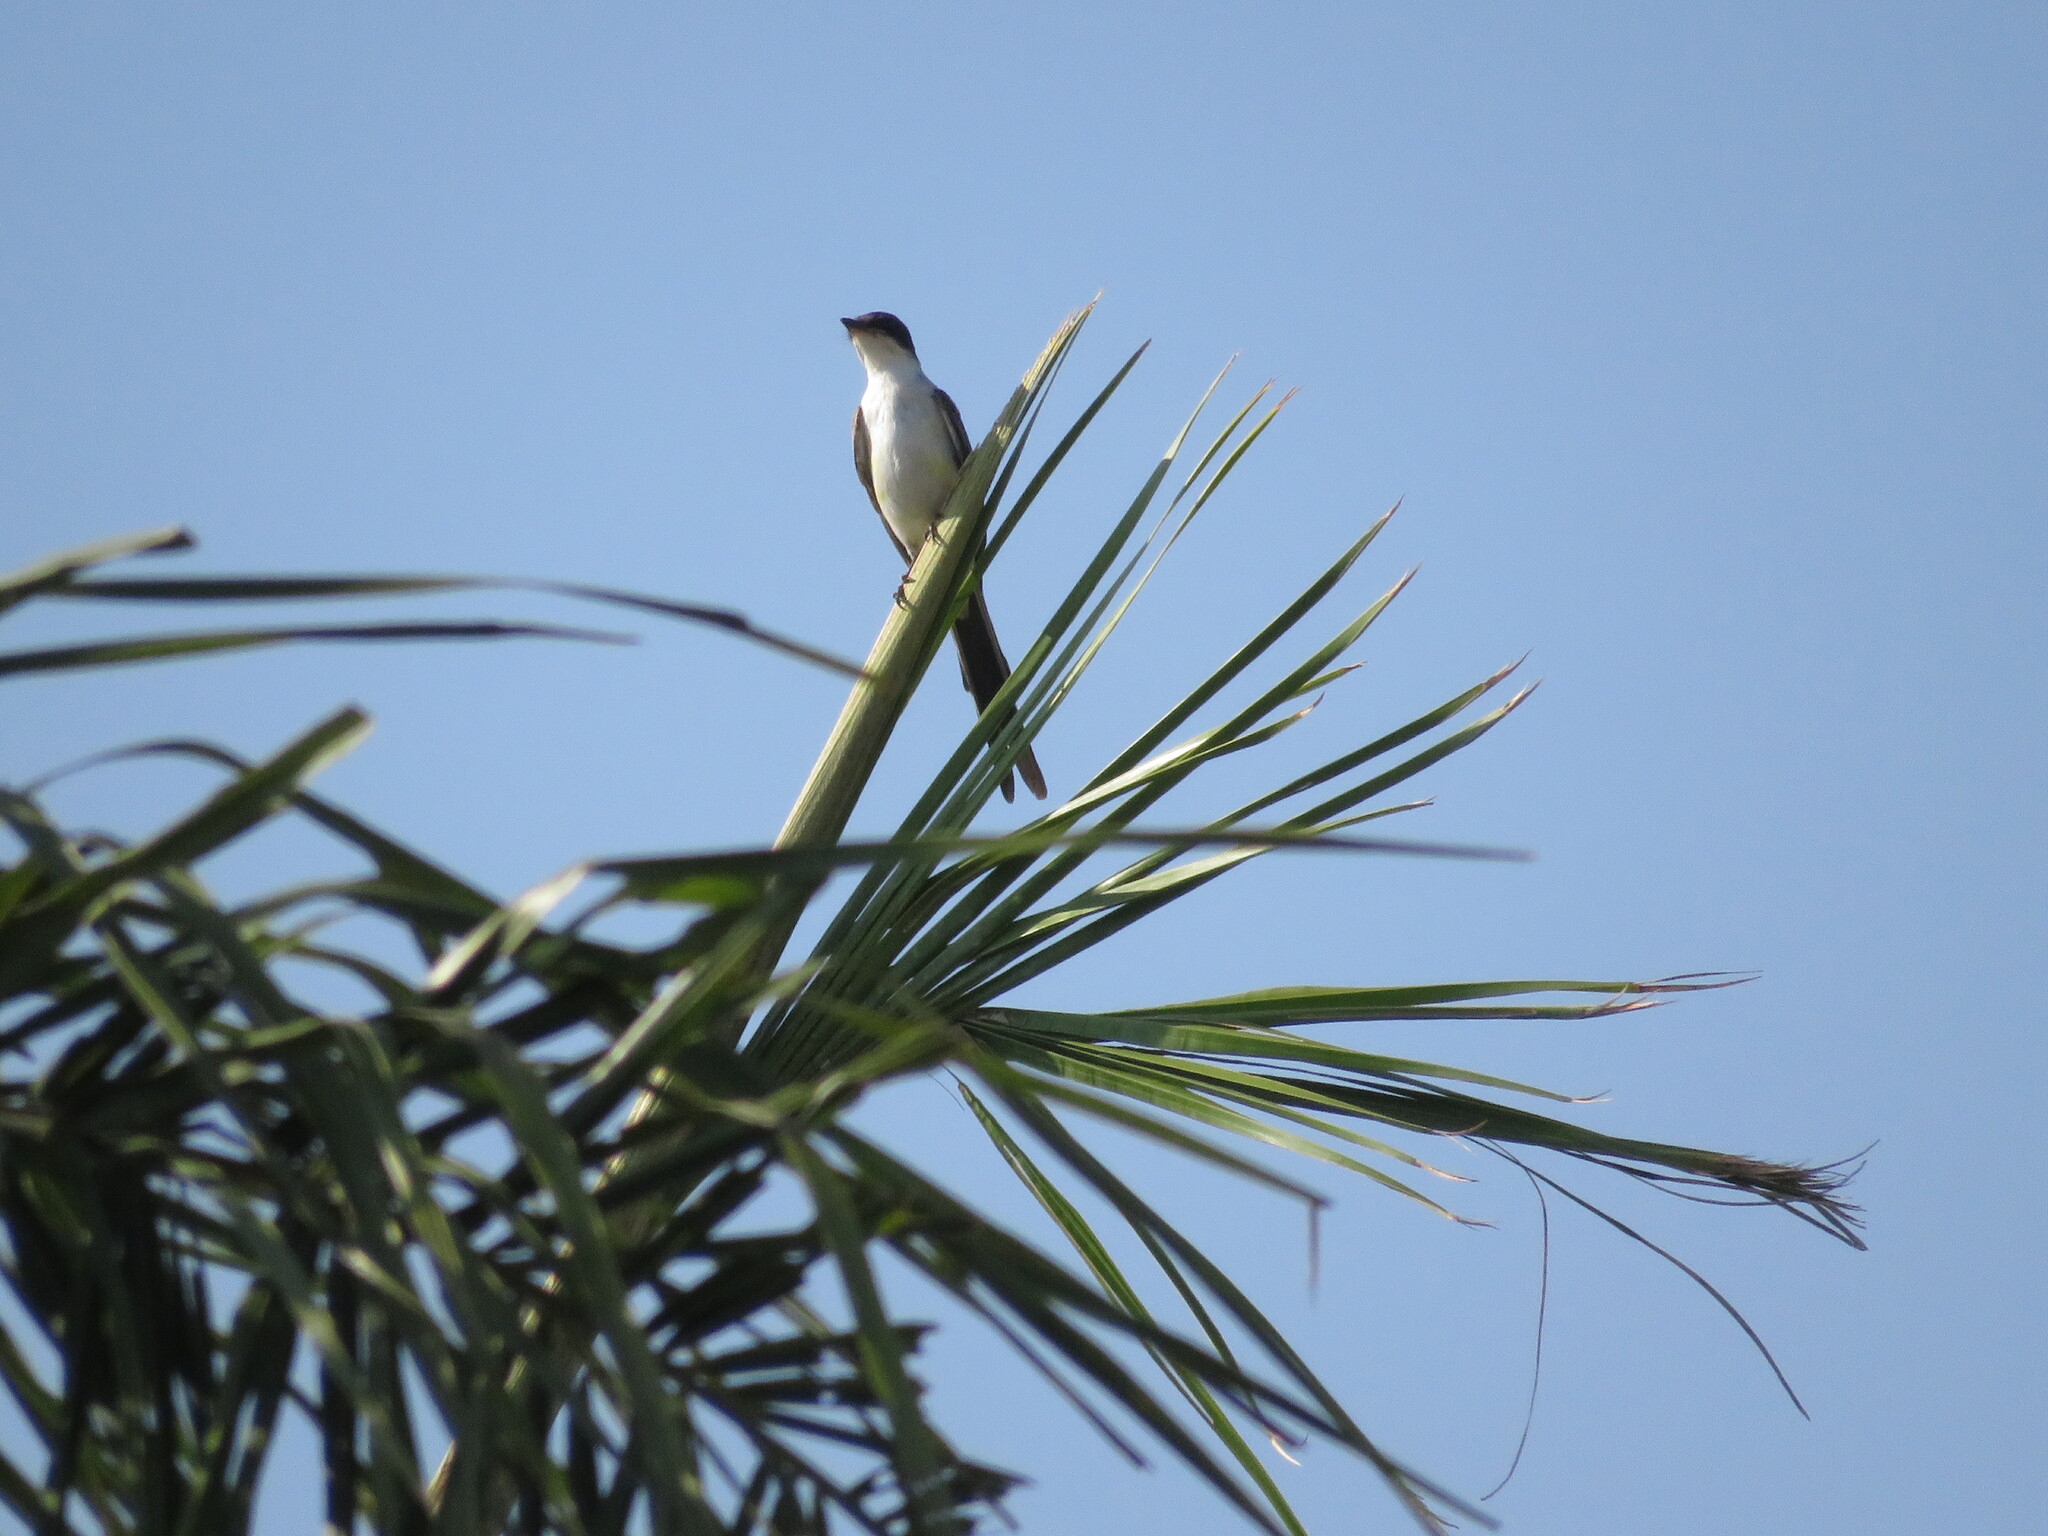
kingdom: Animalia
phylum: Chordata
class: Aves
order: Passeriformes
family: Tyrannidae
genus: Tyrannus
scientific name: Tyrannus savana
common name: Fork-tailed flycatcher
